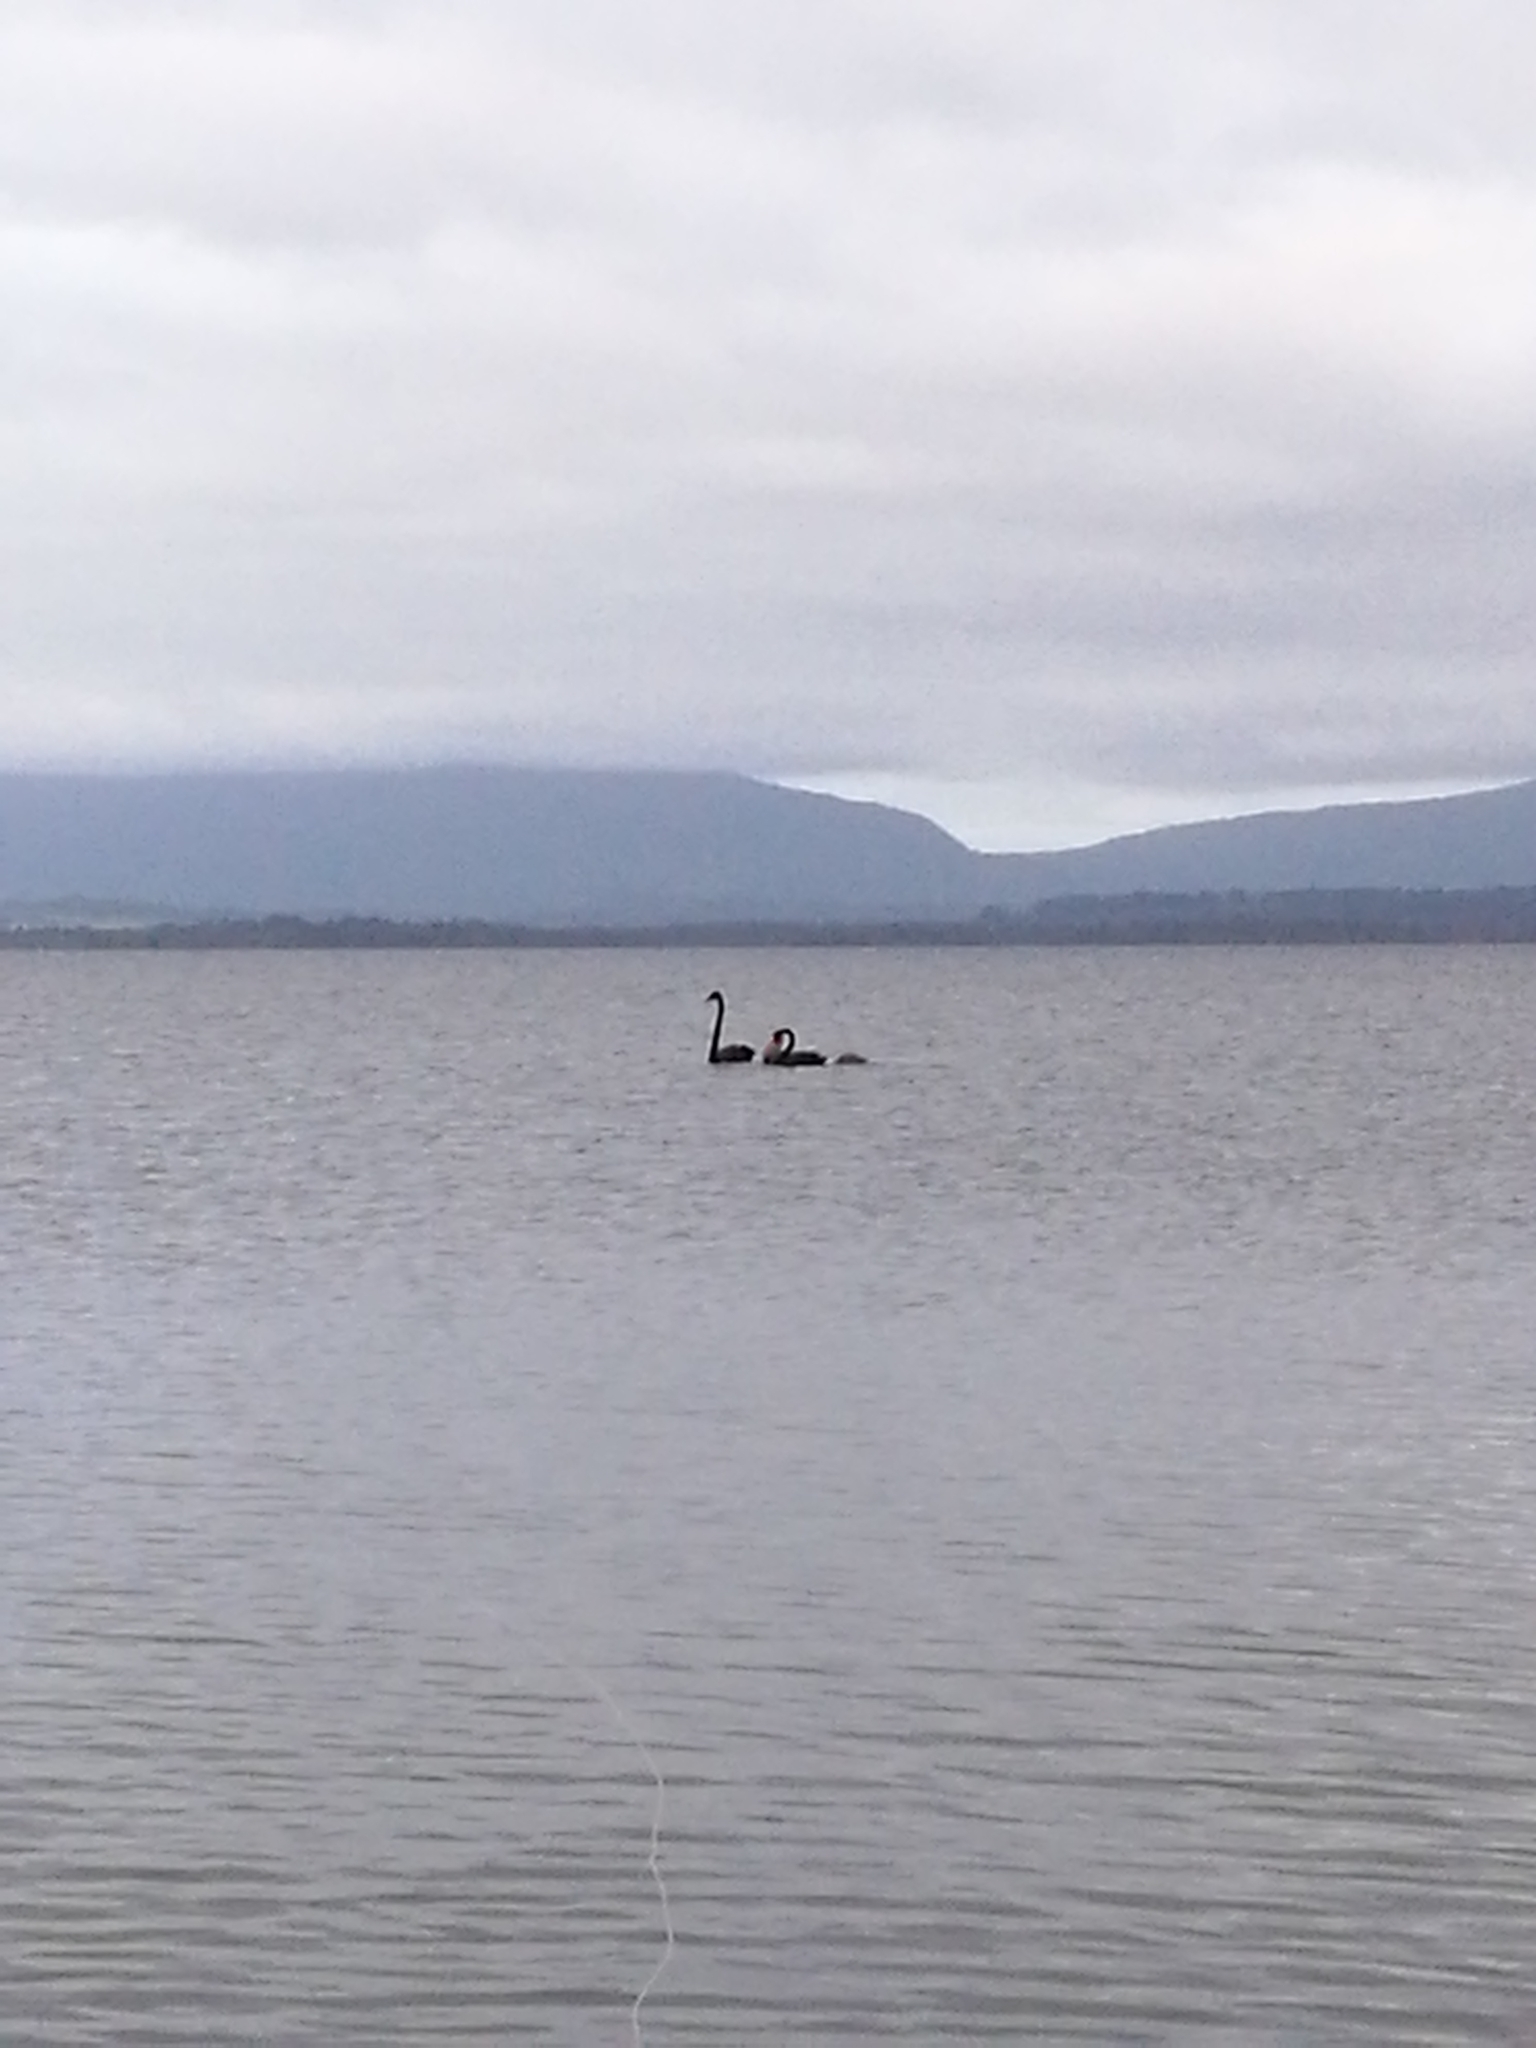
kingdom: Animalia
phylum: Chordata
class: Aves
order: Anseriformes
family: Anatidae
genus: Cygnus
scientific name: Cygnus atratus
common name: Black swan
